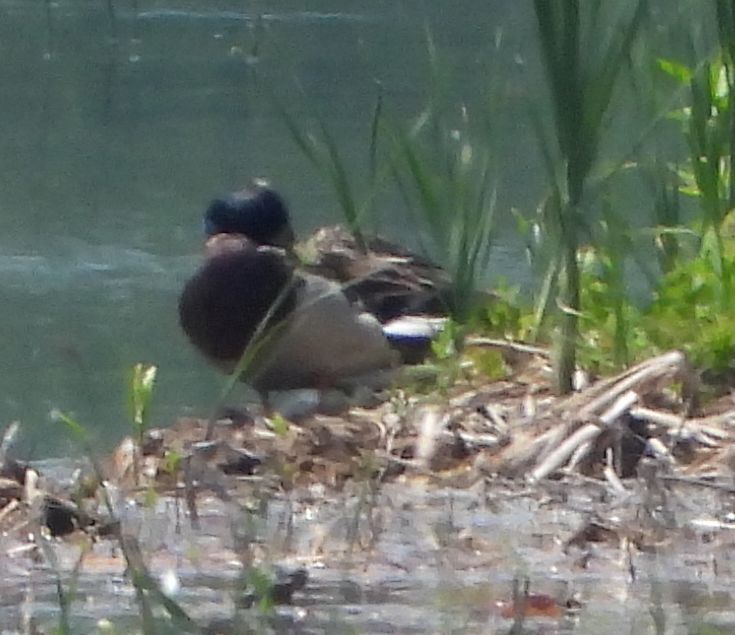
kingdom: Animalia
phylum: Chordata
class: Aves
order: Anseriformes
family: Anatidae
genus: Anas
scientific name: Anas platyrhynchos
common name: Mallard
